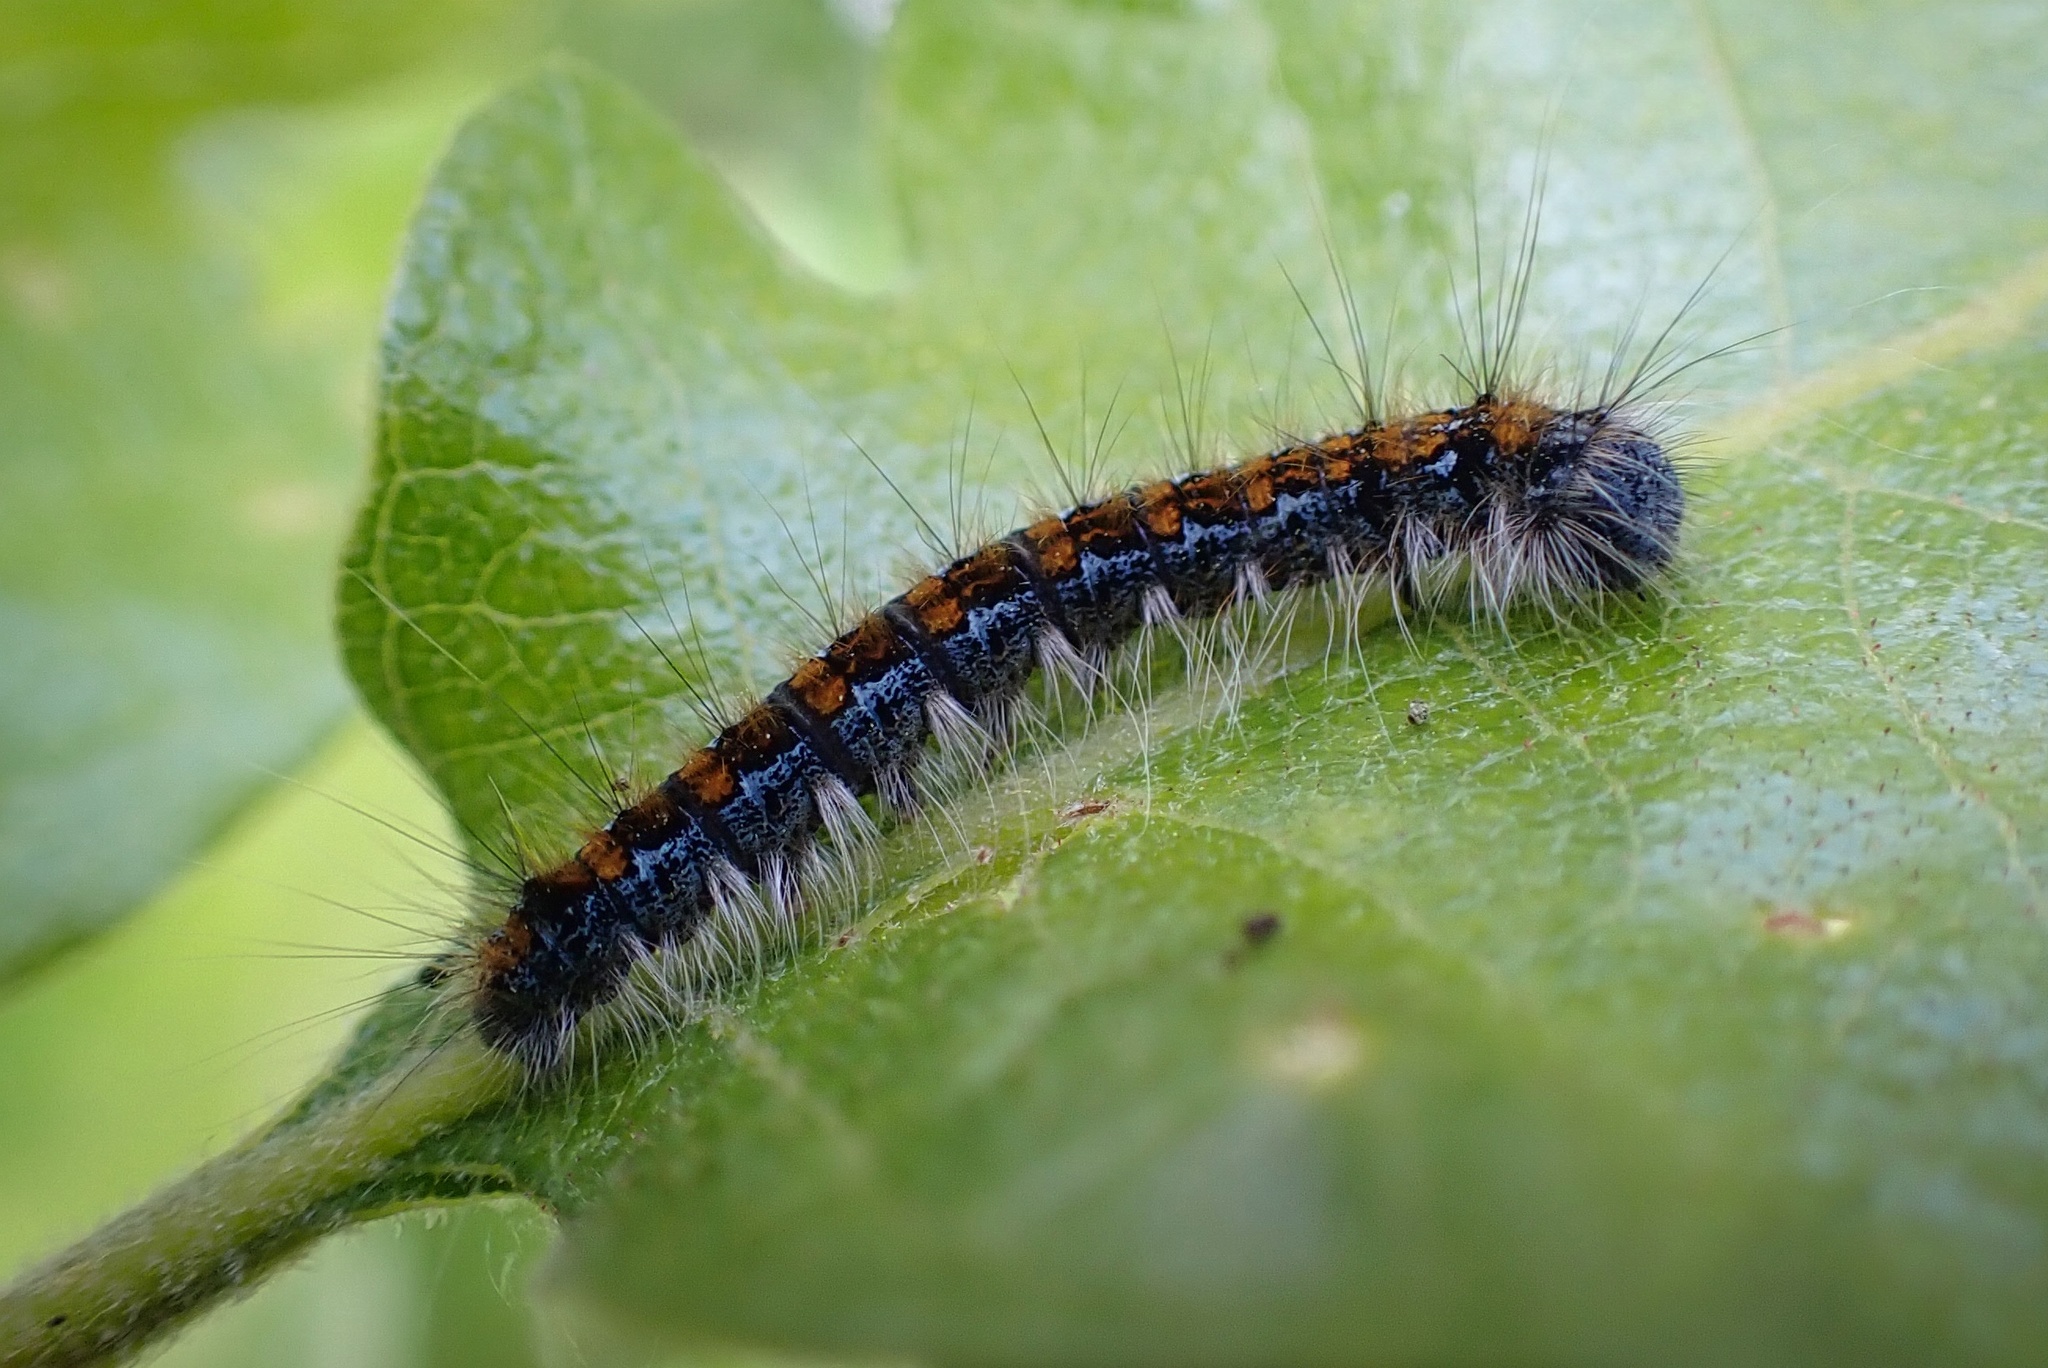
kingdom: Animalia
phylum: Arthropoda
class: Insecta
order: Lepidoptera
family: Lasiocampidae
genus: Malacosoma
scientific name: Malacosoma constricta
